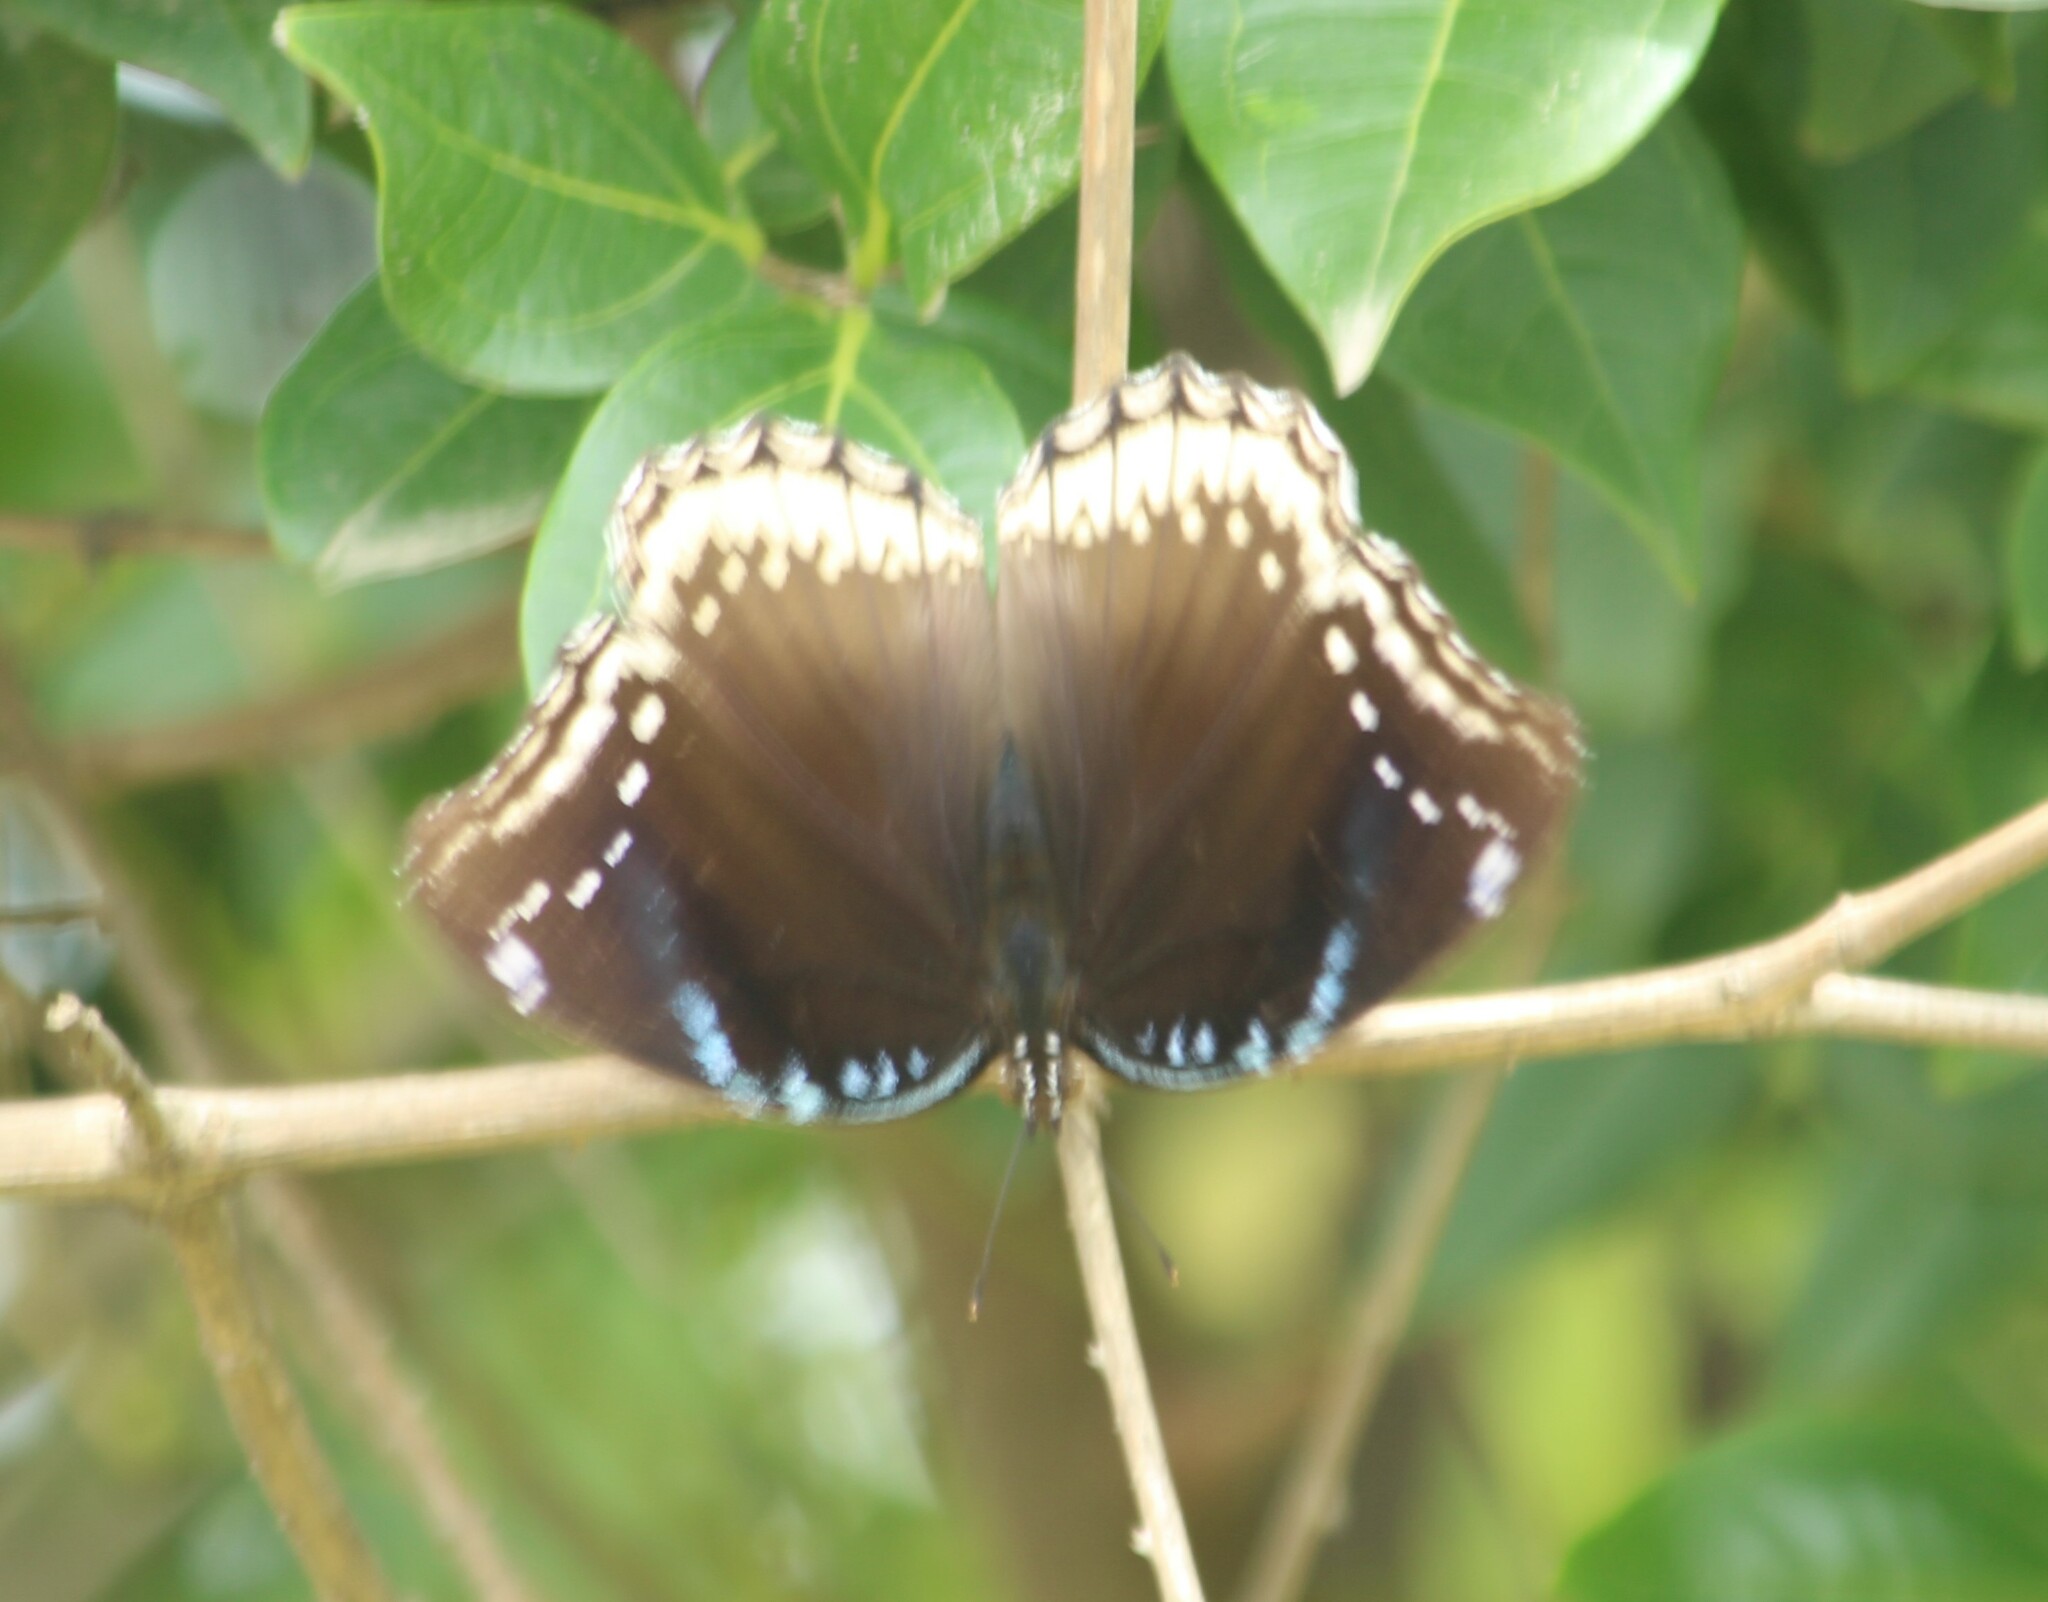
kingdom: Animalia
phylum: Arthropoda
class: Insecta
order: Lepidoptera
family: Nymphalidae
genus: Hypolimnas
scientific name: Hypolimnas bolina
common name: Great eggfly
